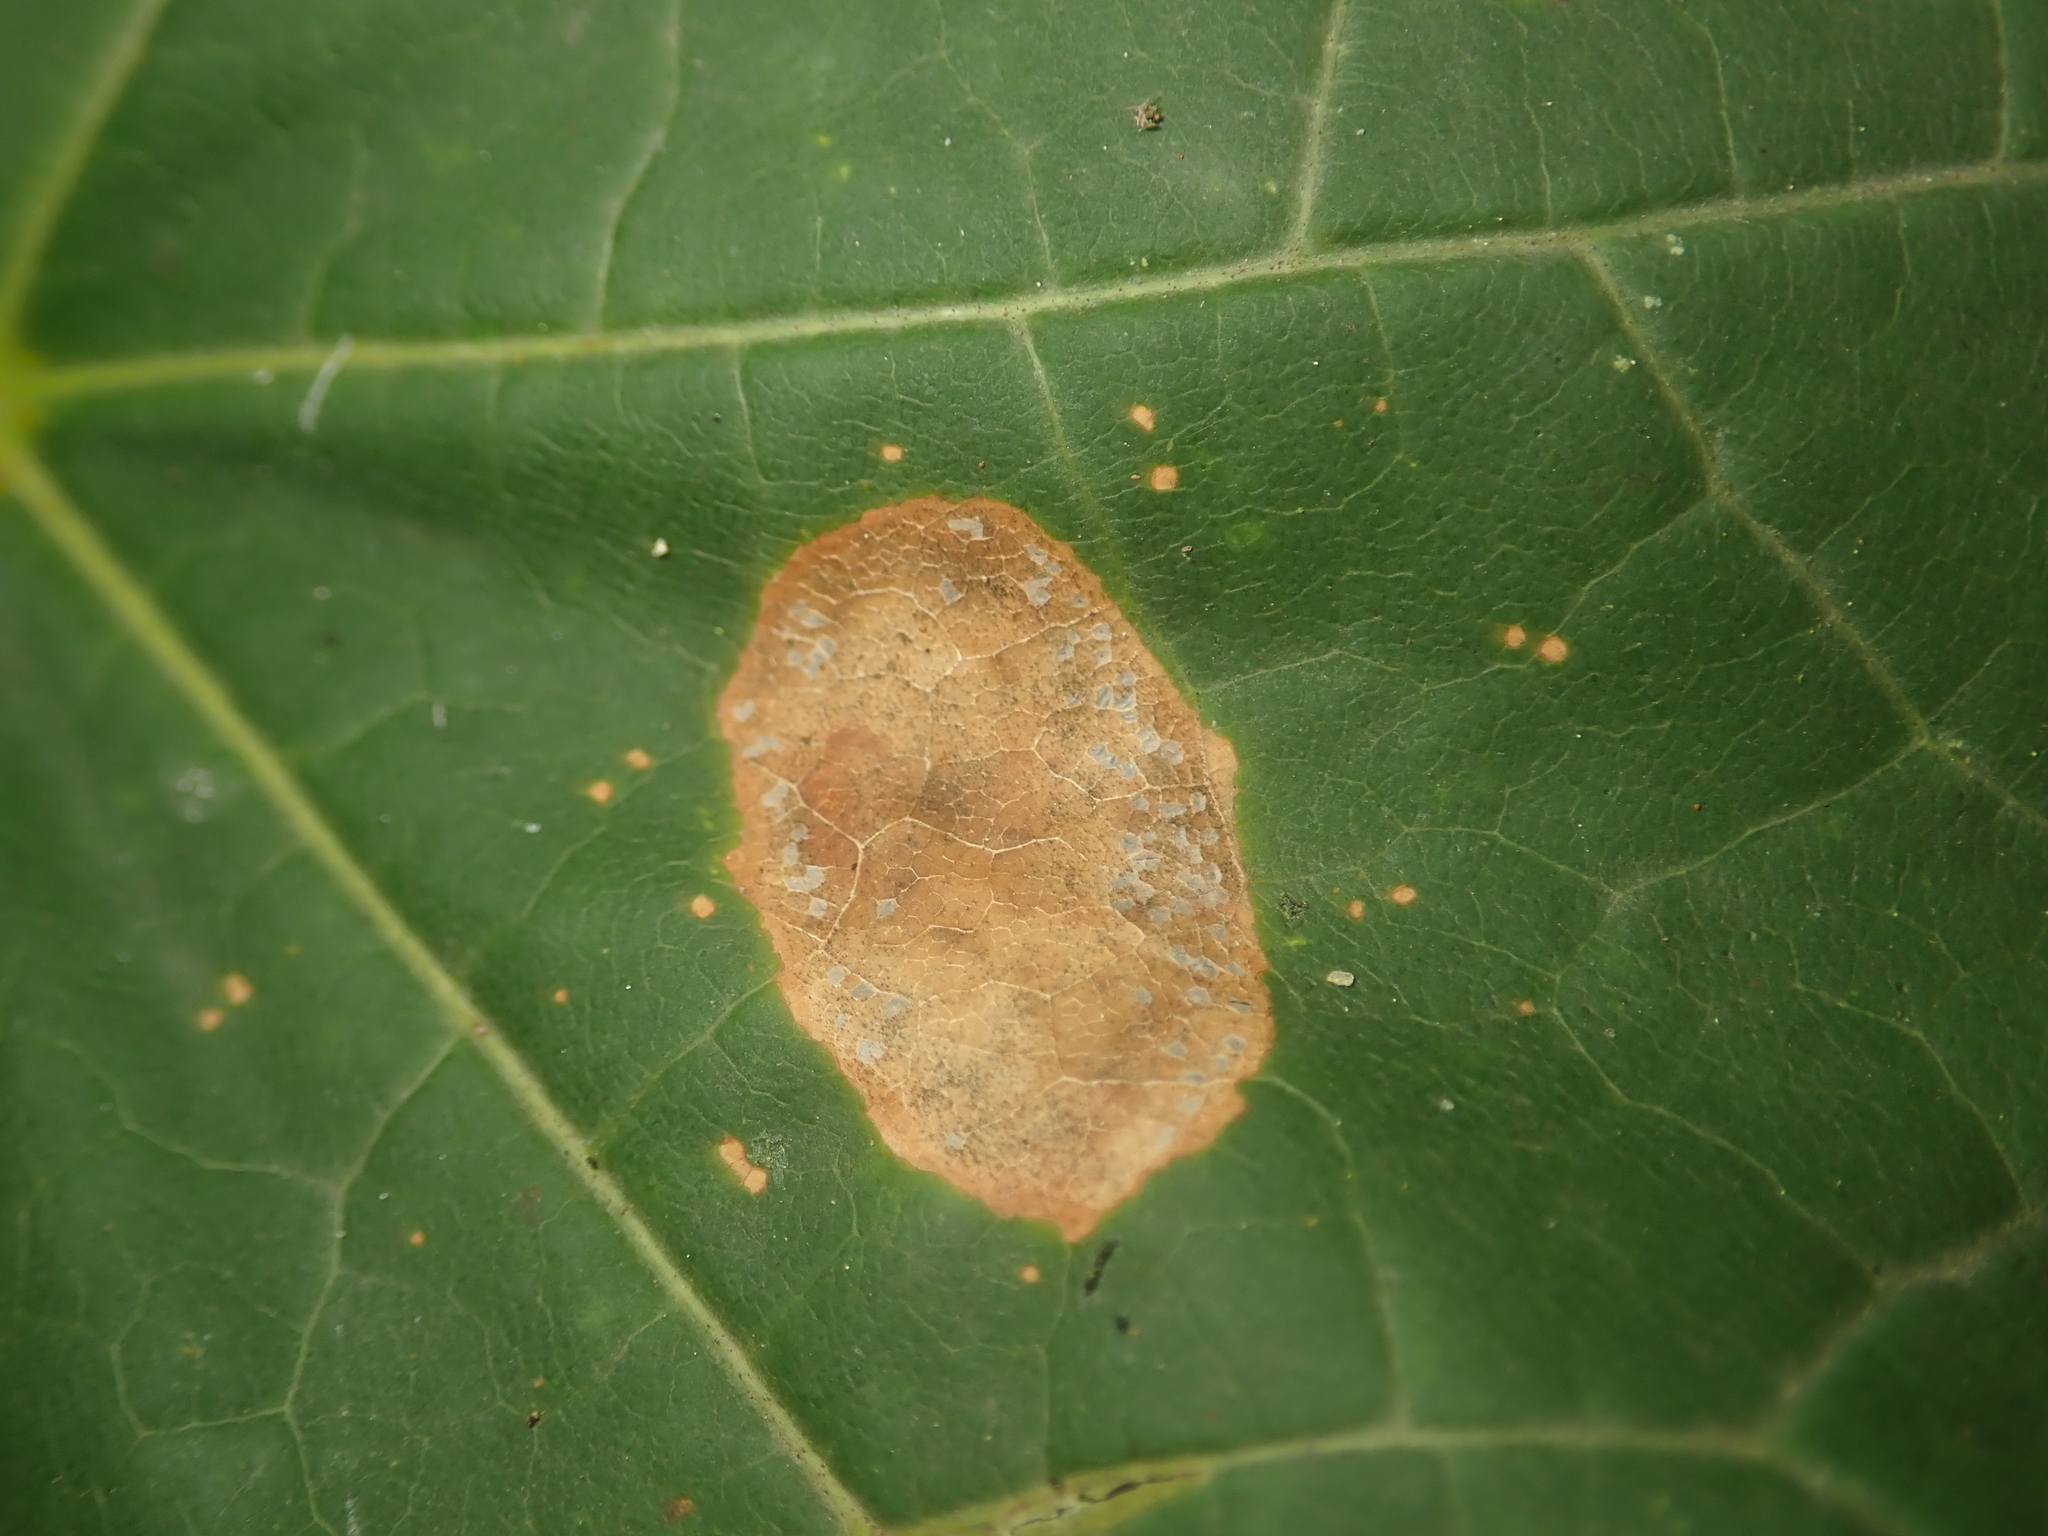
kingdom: Animalia
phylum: Arthropoda
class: Insecta
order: Lepidoptera
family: Gracillariidae
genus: Phyllonorycter
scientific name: Phyllonorycter joannisi
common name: White-bodied midget
